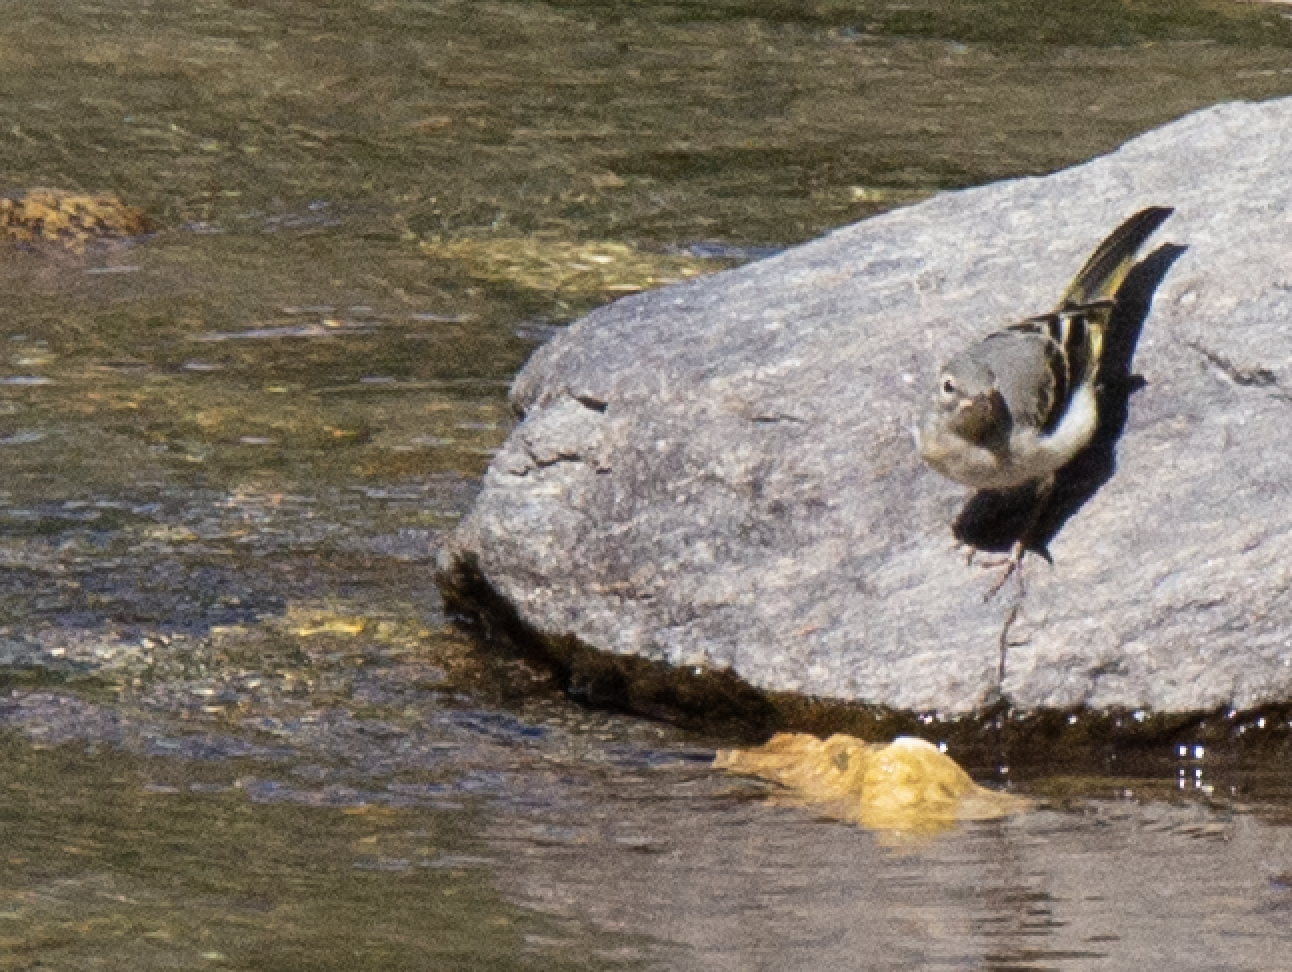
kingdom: Animalia
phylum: Chordata
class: Aves
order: Passeriformes
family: Motacillidae
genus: Motacilla
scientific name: Motacilla cinerea
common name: Grey wagtail
